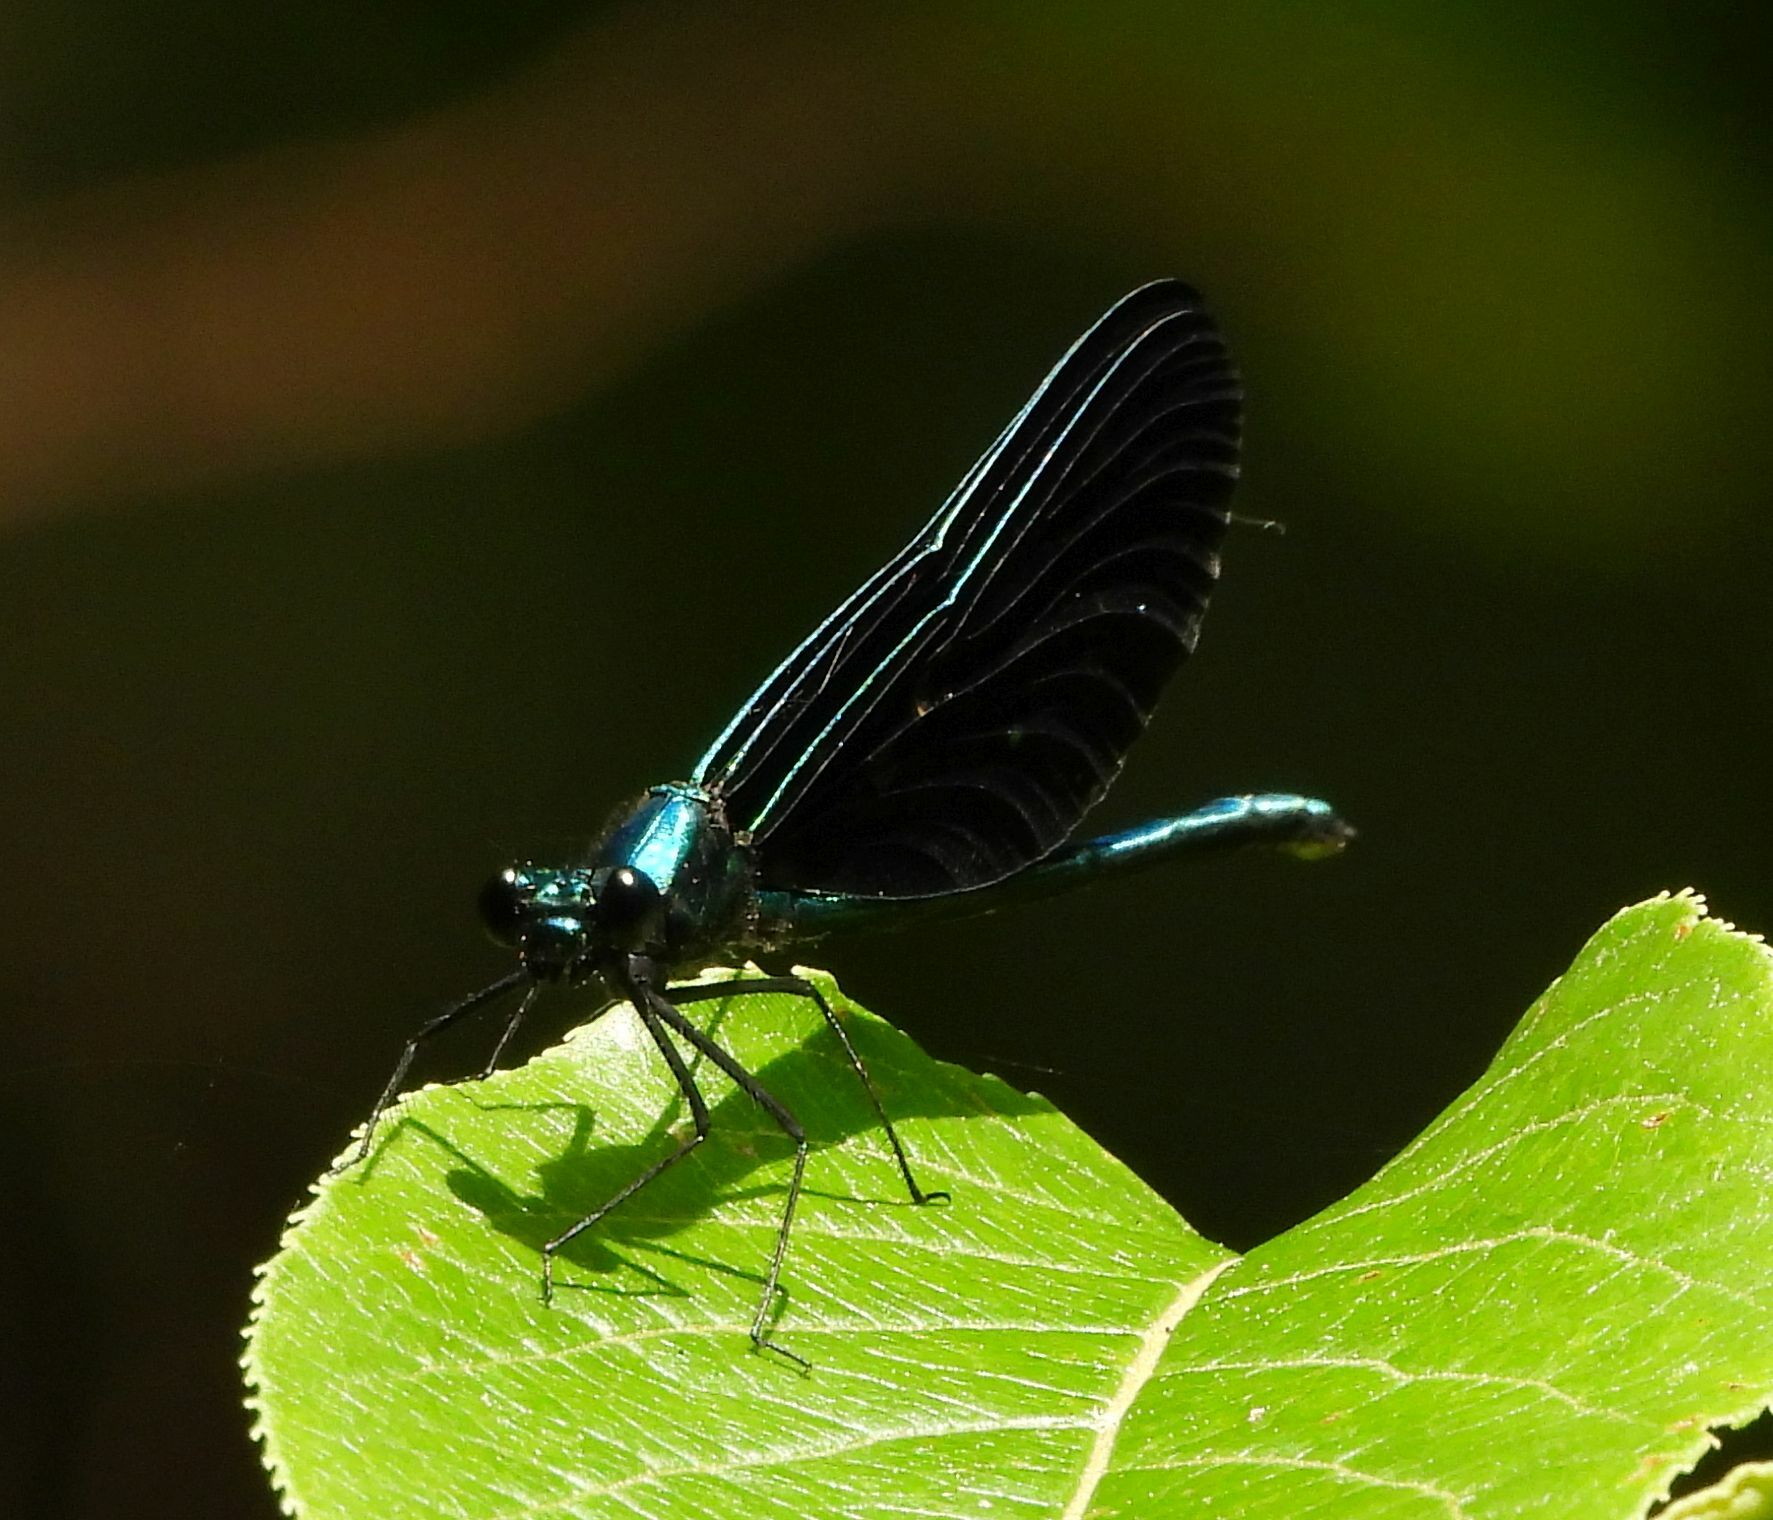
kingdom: Animalia
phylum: Arthropoda
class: Insecta
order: Odonata
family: Calopterygidae
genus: Calopteryx
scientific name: Calopteryx maculata
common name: Ebony jewelwing
